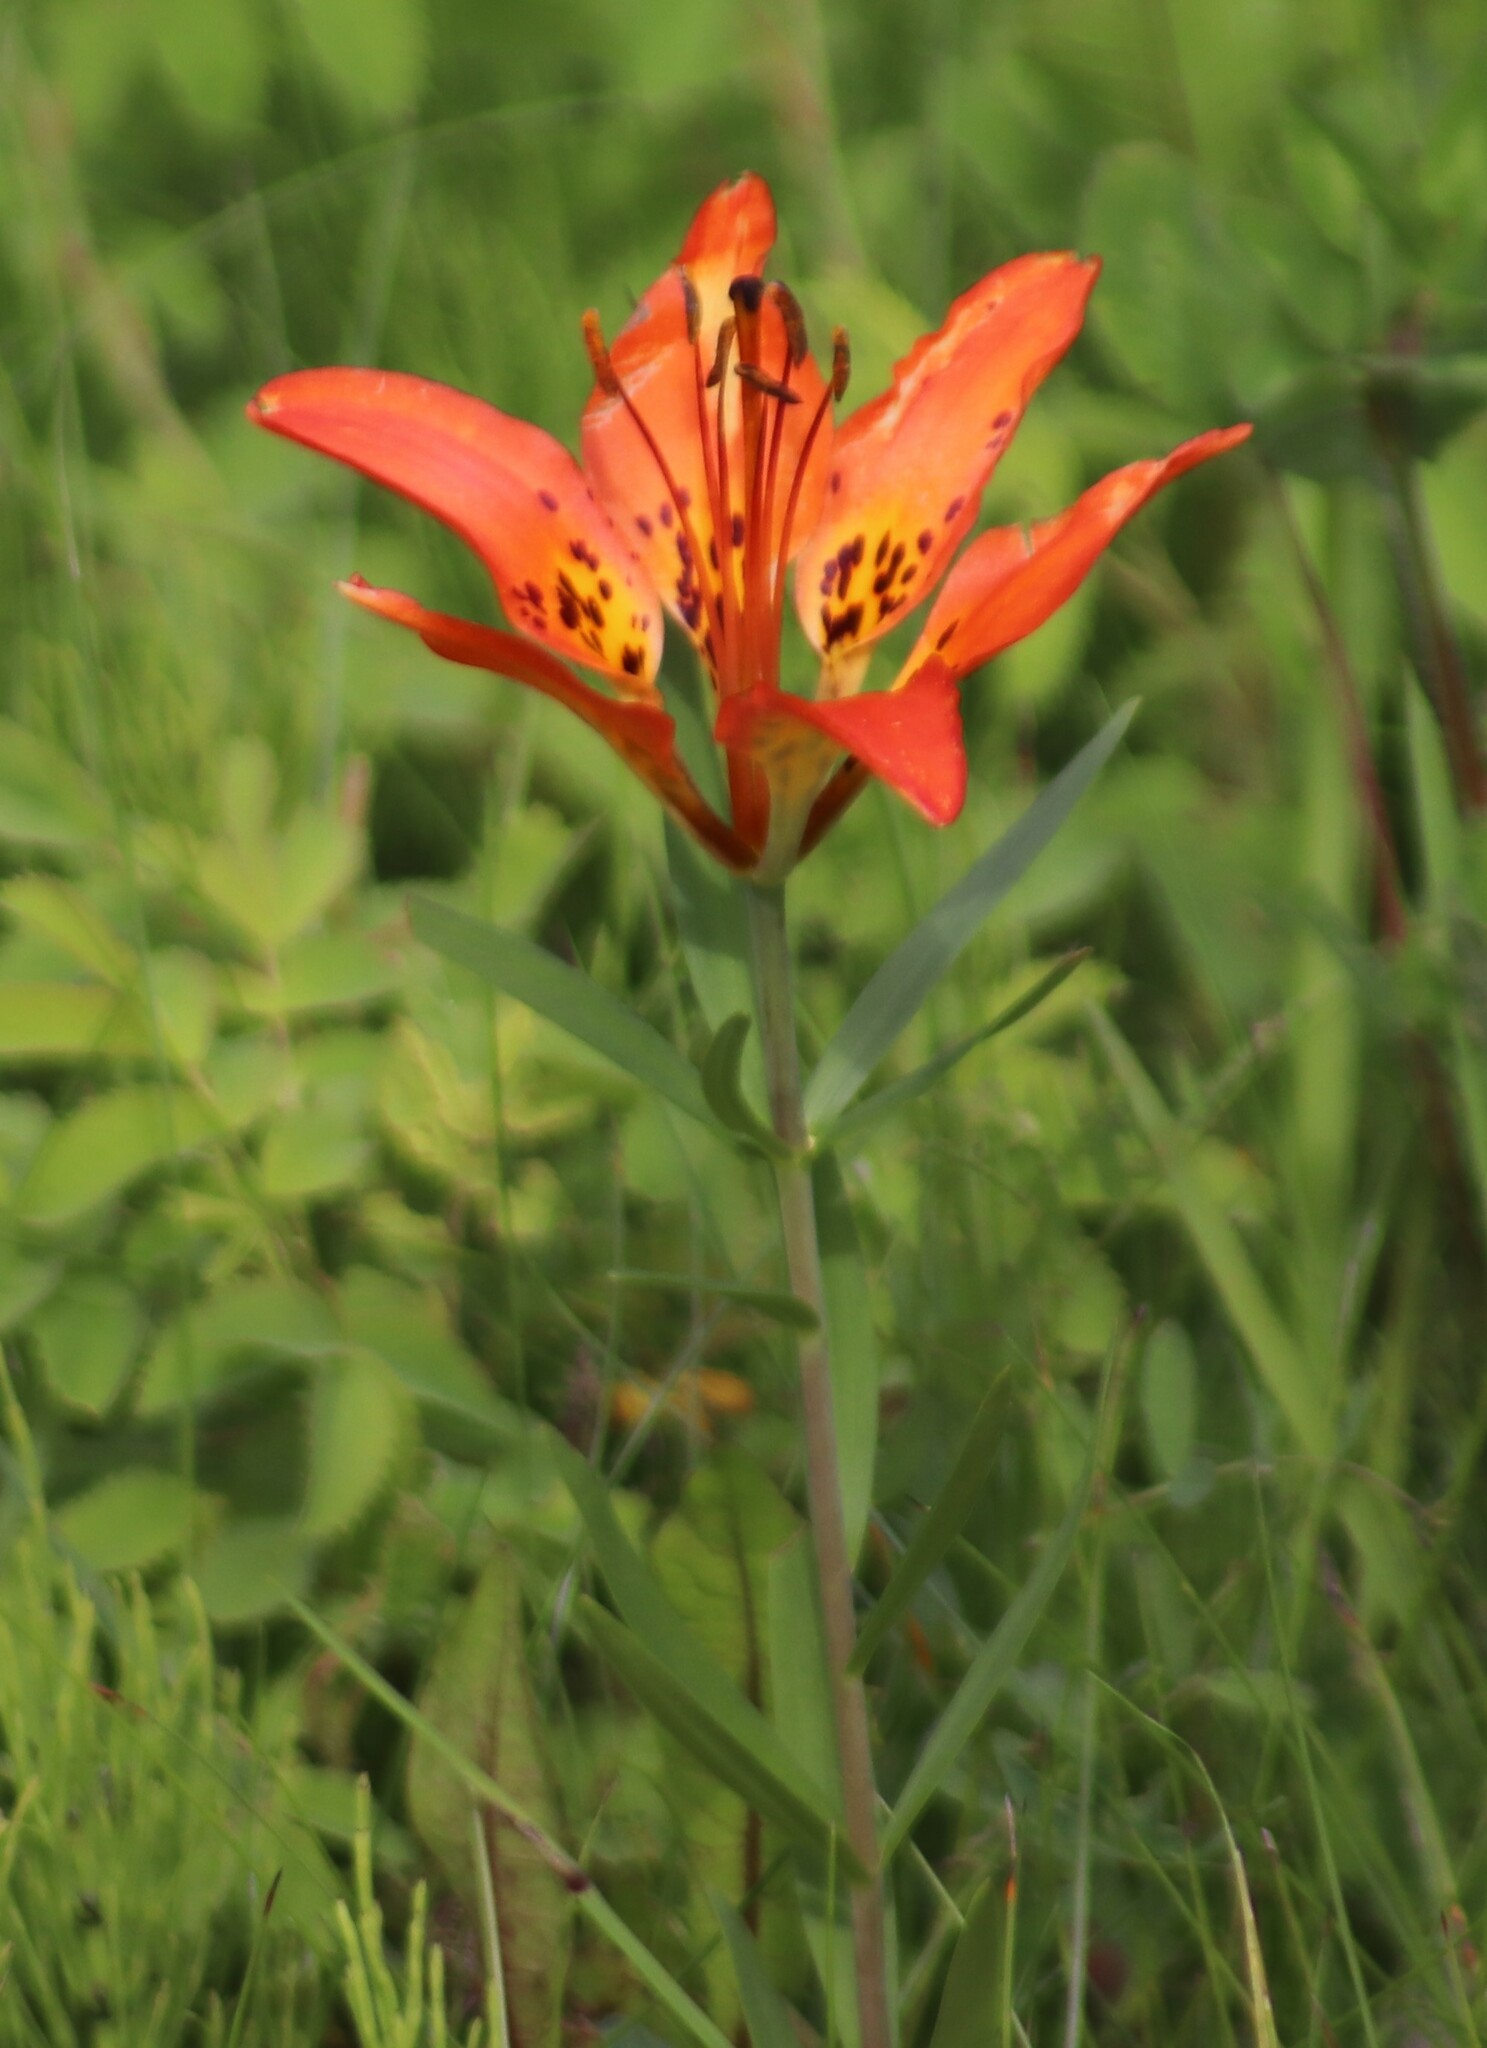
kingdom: Plantae
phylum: Tracheophyta
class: Liliopsida
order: Liliales
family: Liliaceae
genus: Lilium
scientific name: Lilium philadelphicum
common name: Red lily
